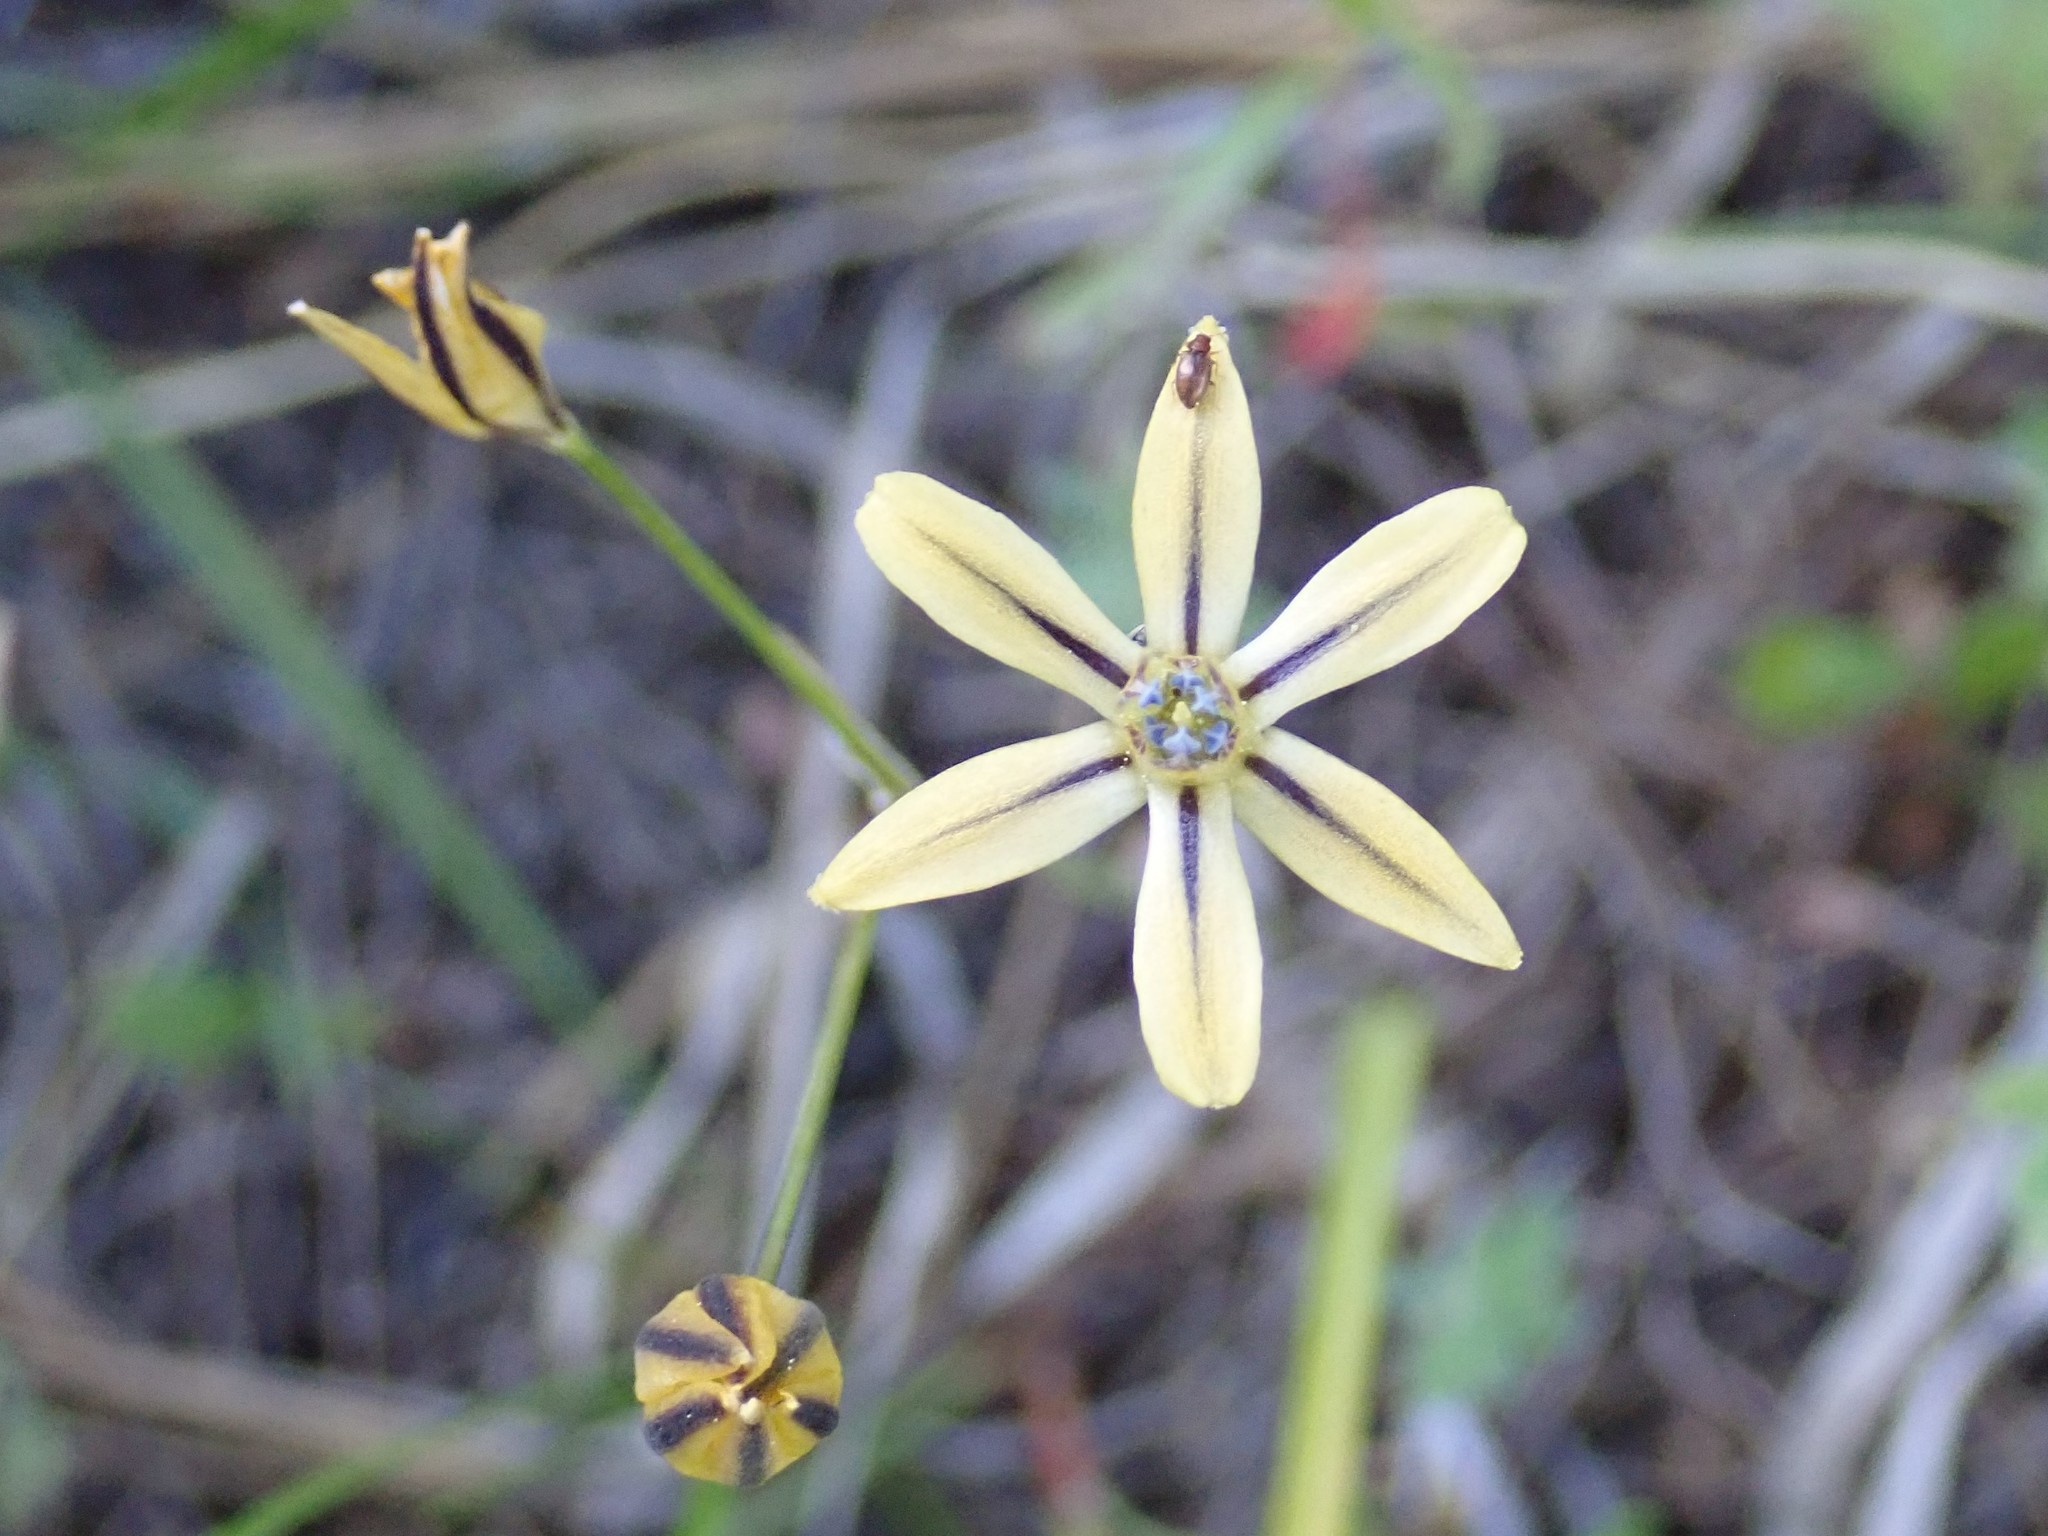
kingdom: Plantae
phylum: Tracheophyta
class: Liliopsida
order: Asparagales
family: Asparagaceae
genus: Triteleia
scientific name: Triteleia ixioides
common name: Yellow-brodiaea
